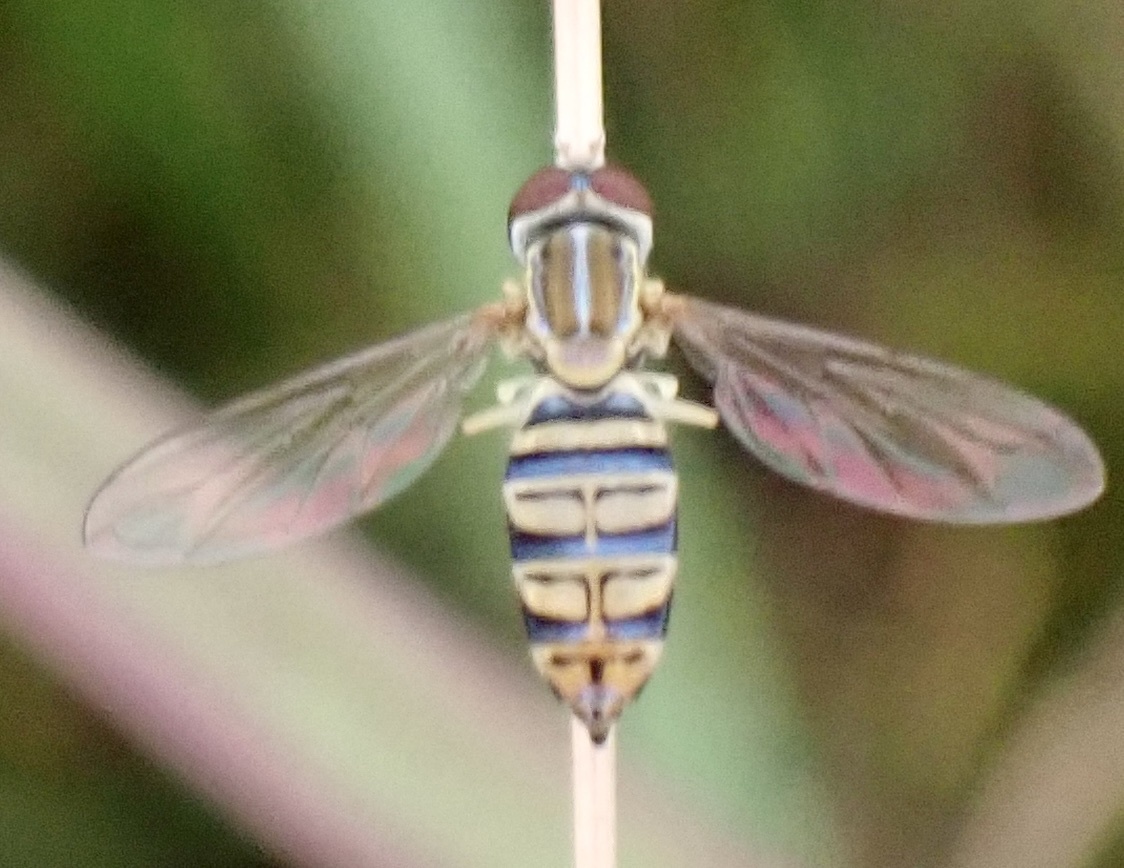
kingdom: Animalia
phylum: Arthropoda
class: Insecta
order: Diptera
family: Syrphidae
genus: Toxomerus
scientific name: Toxomerus politus
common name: Maize calligrapher
